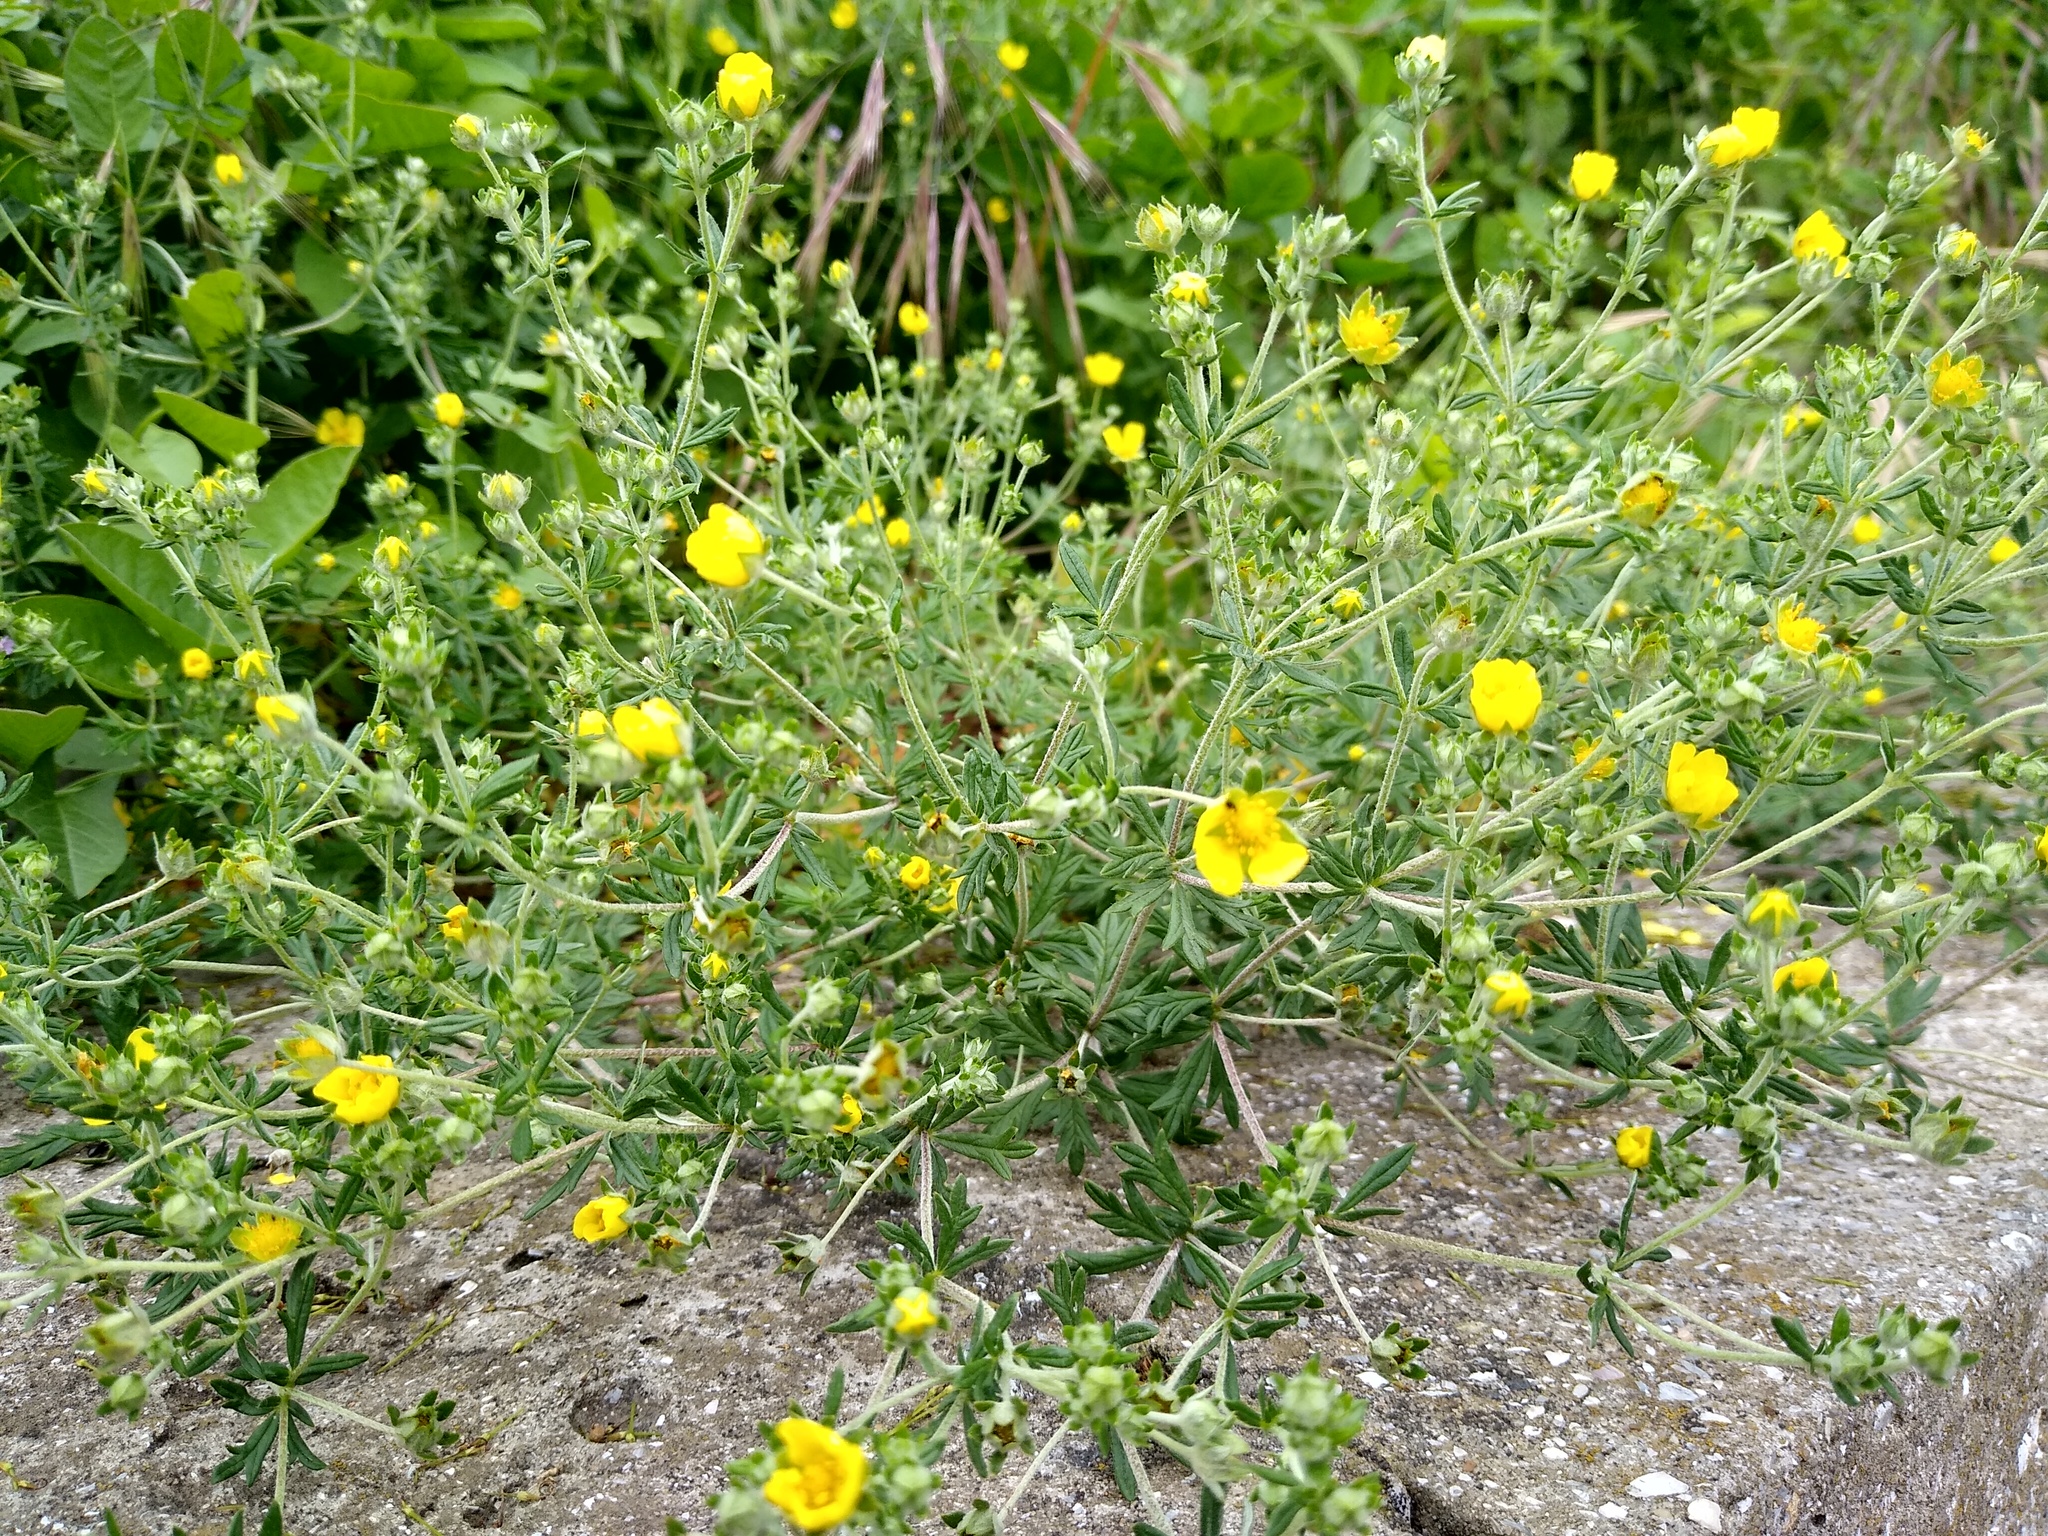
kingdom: Plantae
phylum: Tracheophyta
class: Magnoliopsida
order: Rosales
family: Rosaceae
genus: Potentilla
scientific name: Potentilla argentea
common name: Hoary cinquefoil
